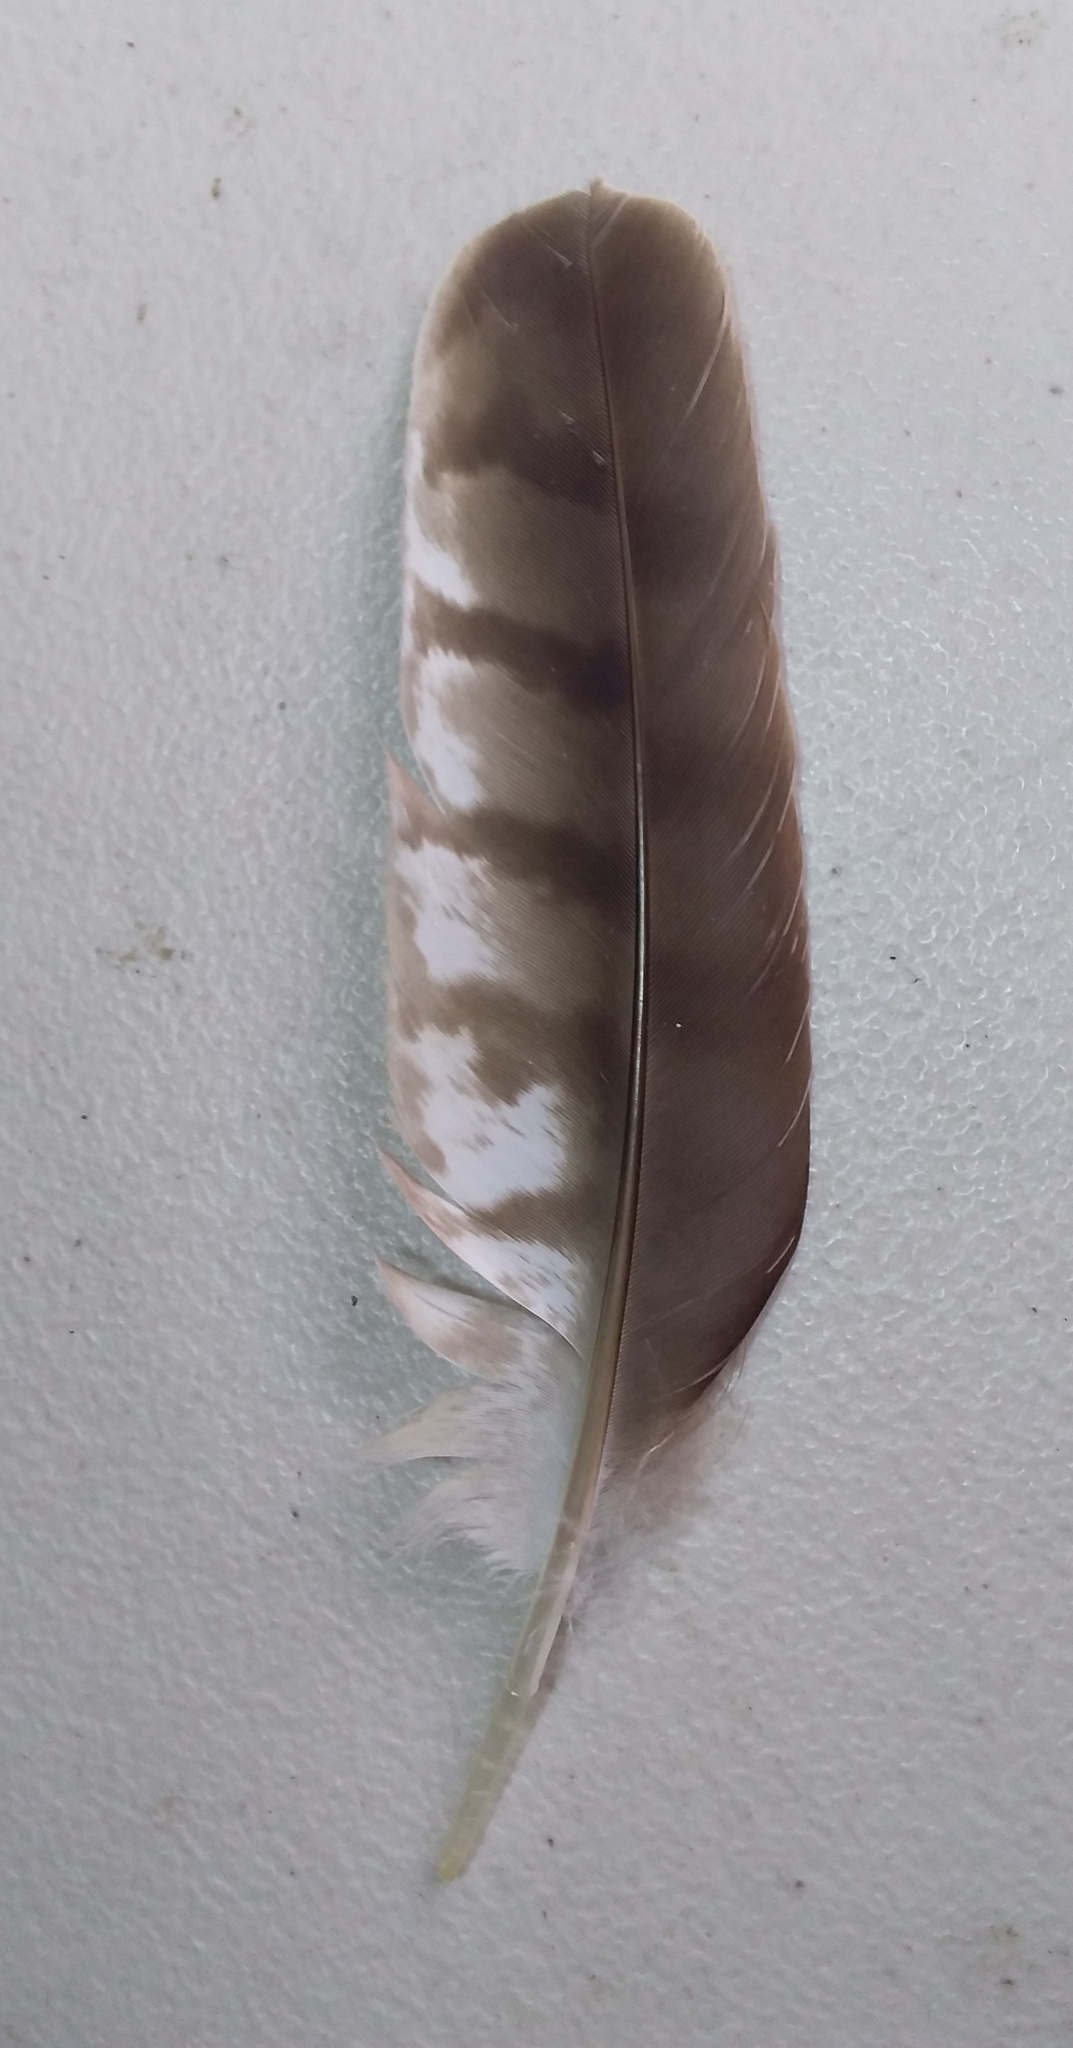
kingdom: Animalia
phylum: Chordata
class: Aves
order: Accipitriformes
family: Accipitridae
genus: Accipiter
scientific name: Accipiter cooperii
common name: Cooper's hawk
